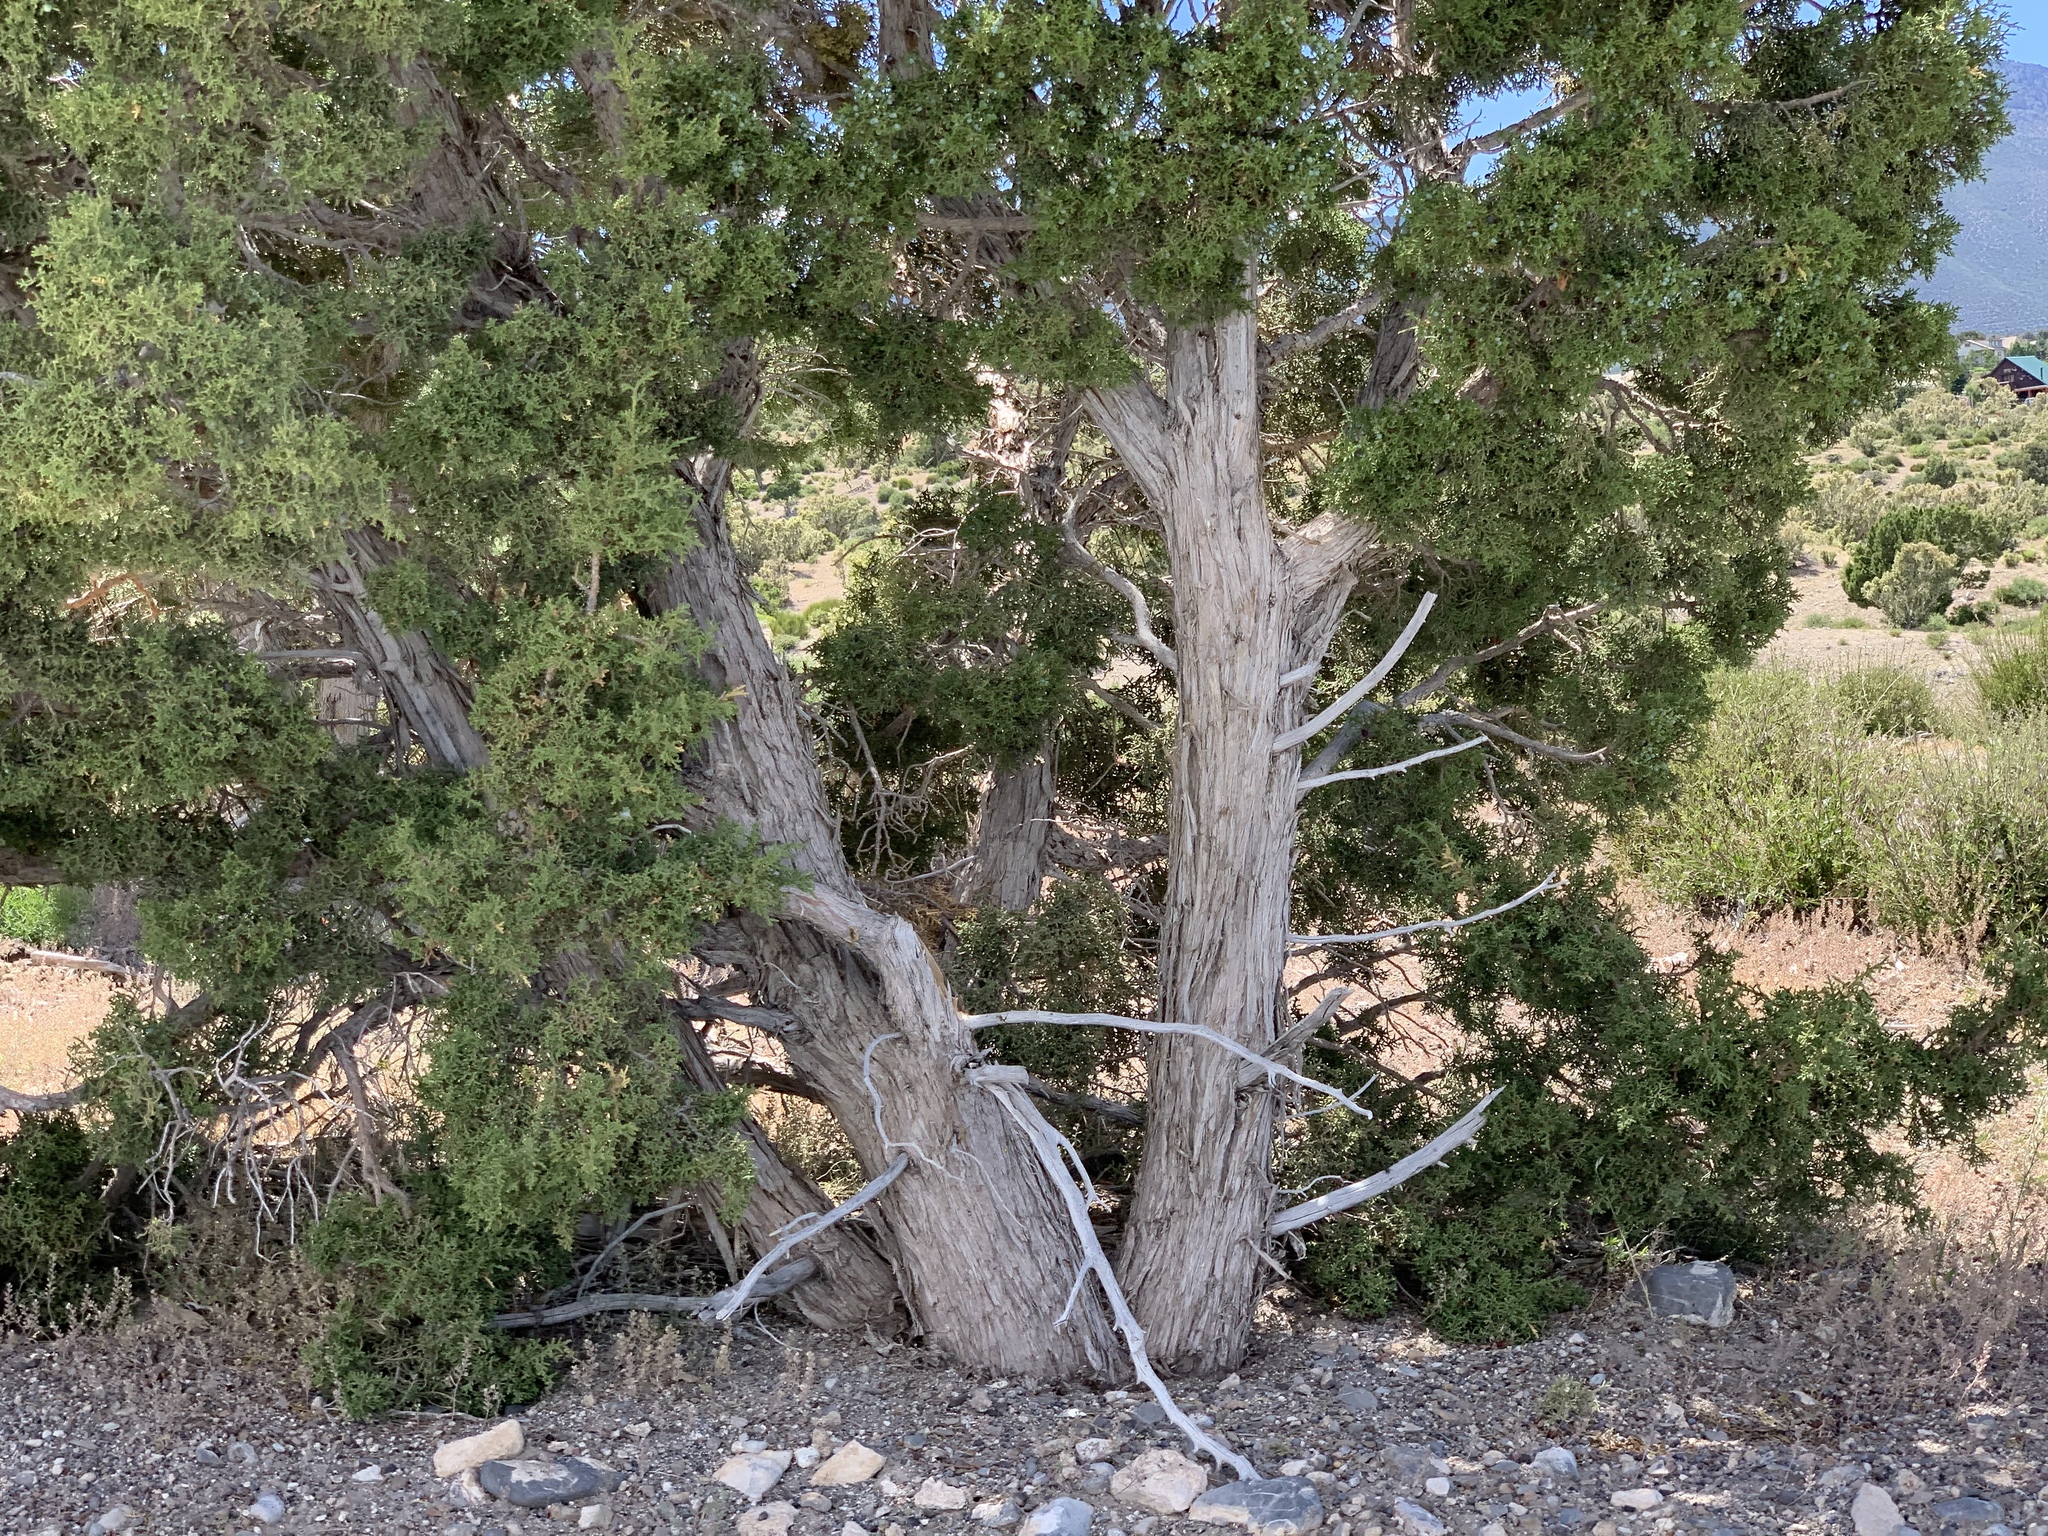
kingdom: Plantae
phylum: Tracheophyta
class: Pinopsida
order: Pinales
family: Cupressaceae
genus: Juniperus
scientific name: Juniperus osteosperma
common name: Utah juniper
